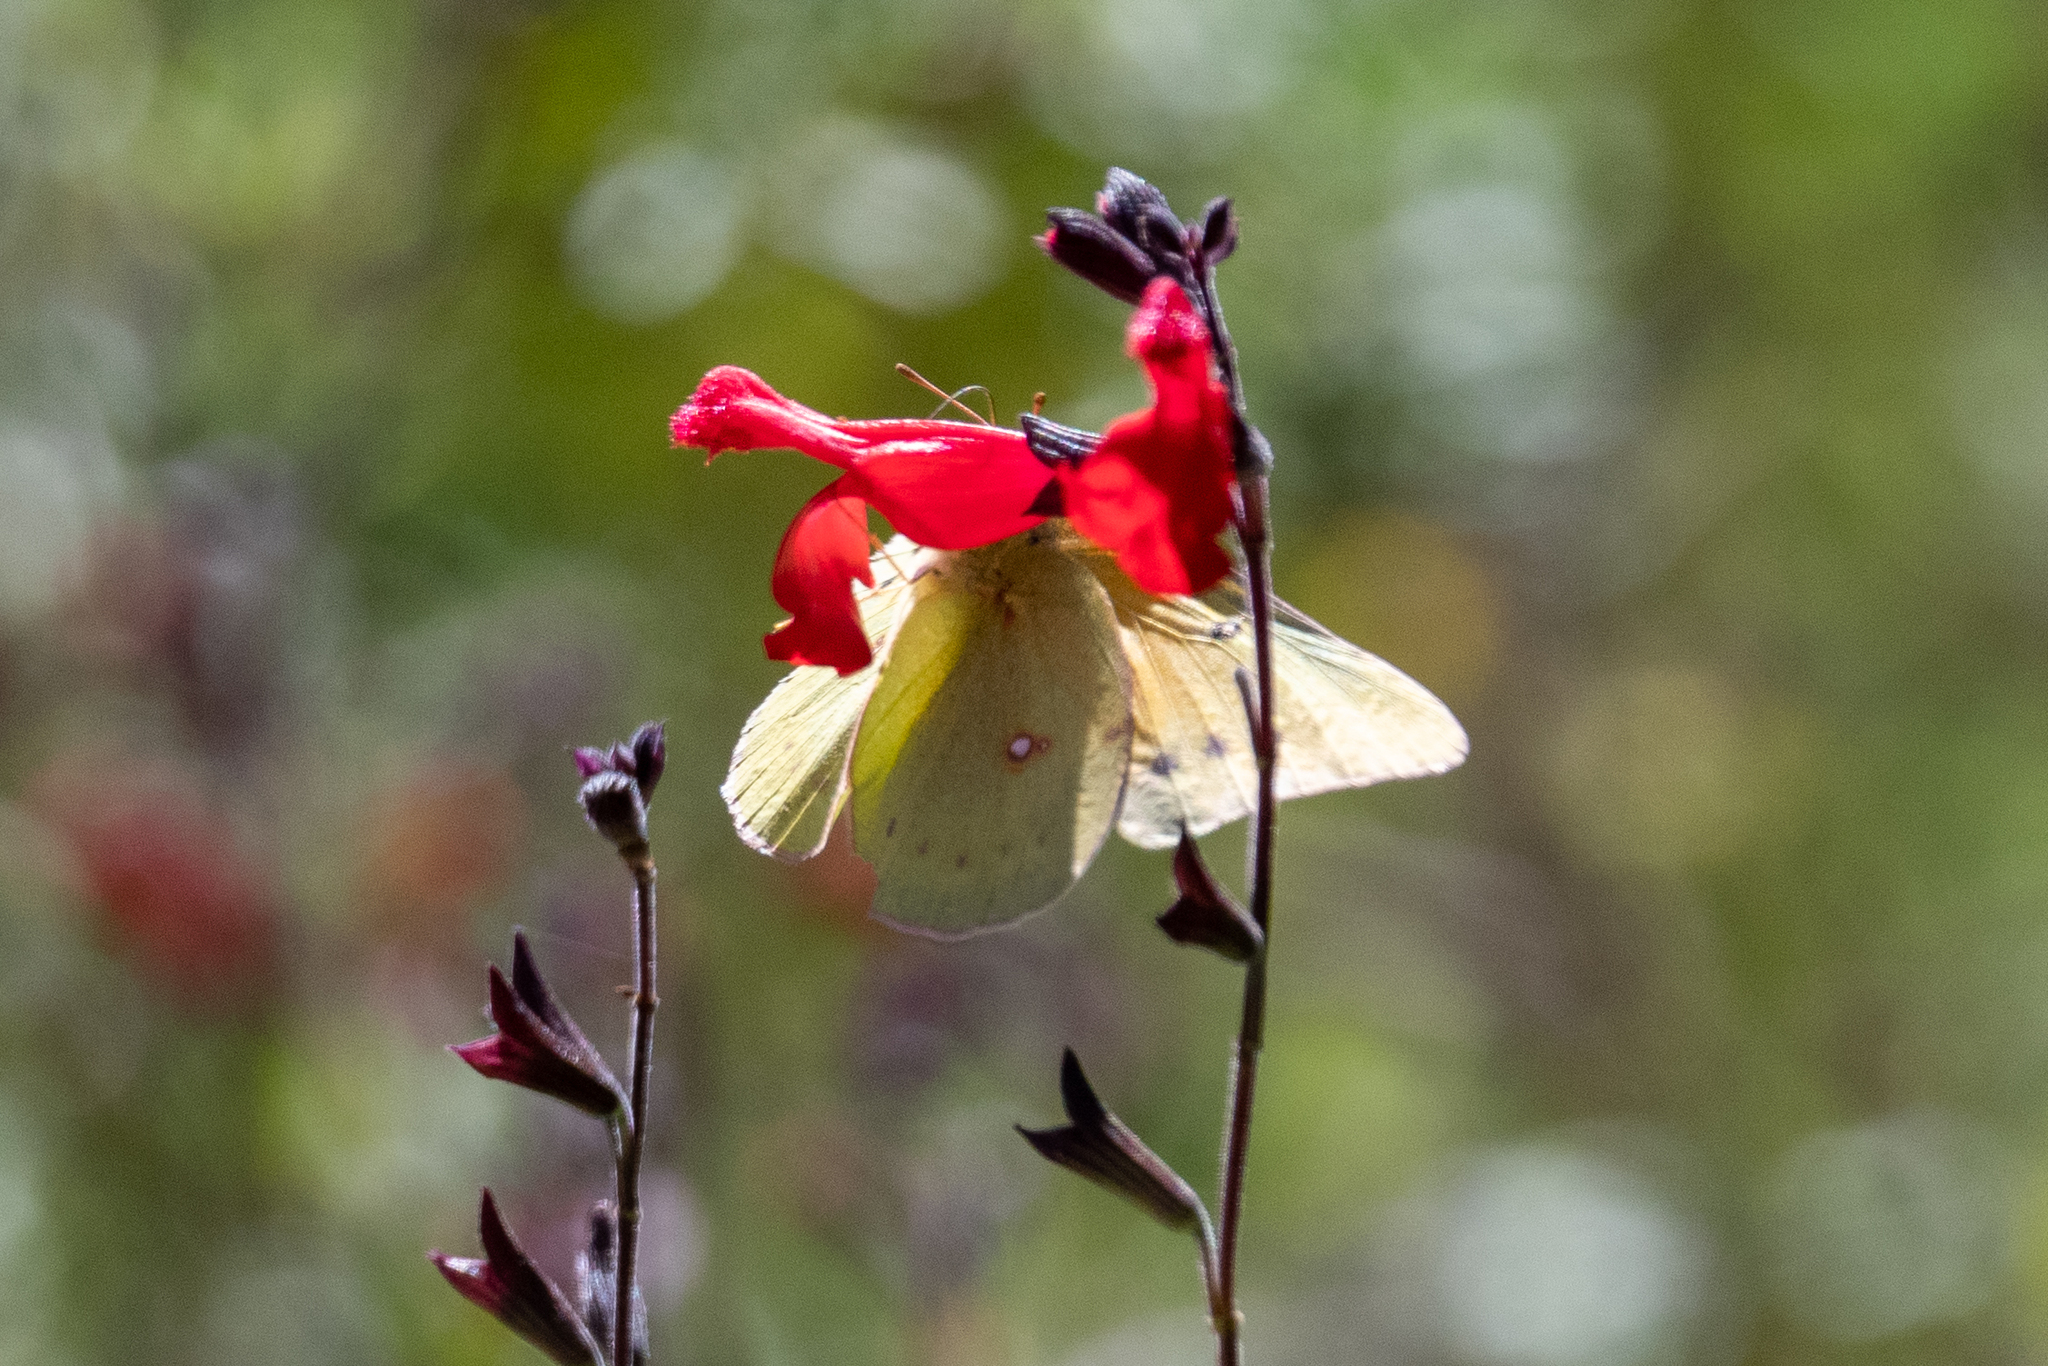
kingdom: Animalia
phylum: Arthropoda
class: Insecta
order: Lepidoptera
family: Pieridae
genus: Colias
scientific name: Colias eurytheme
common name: Alfalfa butterfly
